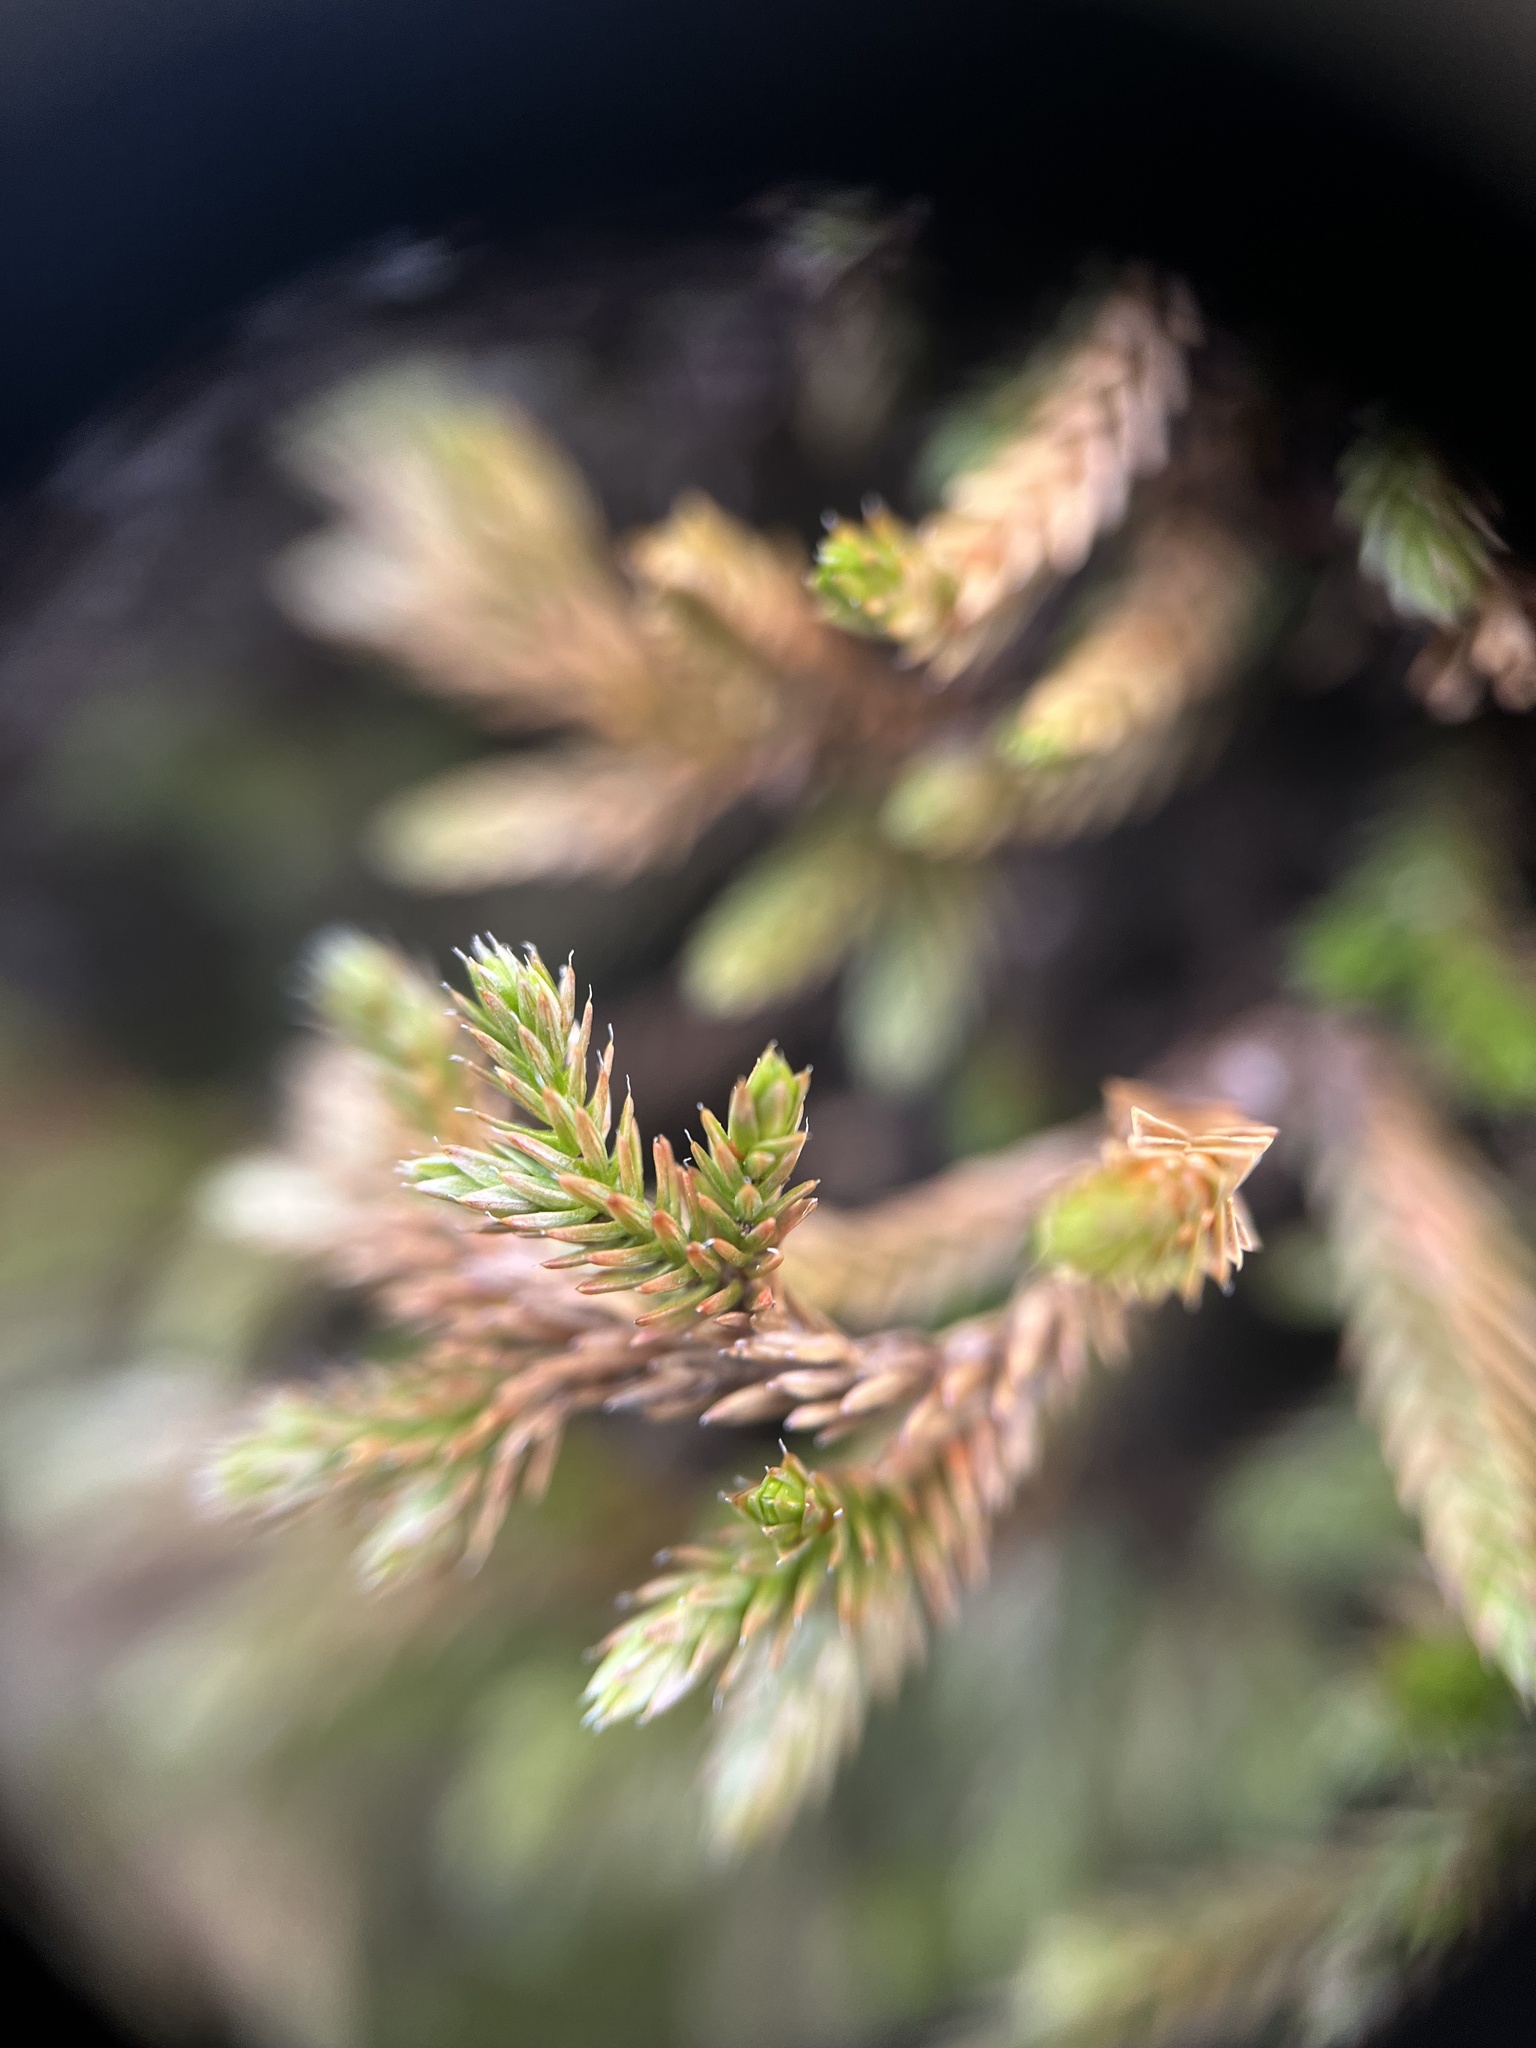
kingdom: Plantae
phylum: Tracheophyta
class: Lycopodiopsida
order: Selaginellales
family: Selaginellaceae
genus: Selaginella
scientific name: Selaginella wallacei
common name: Wallace's selaginella
